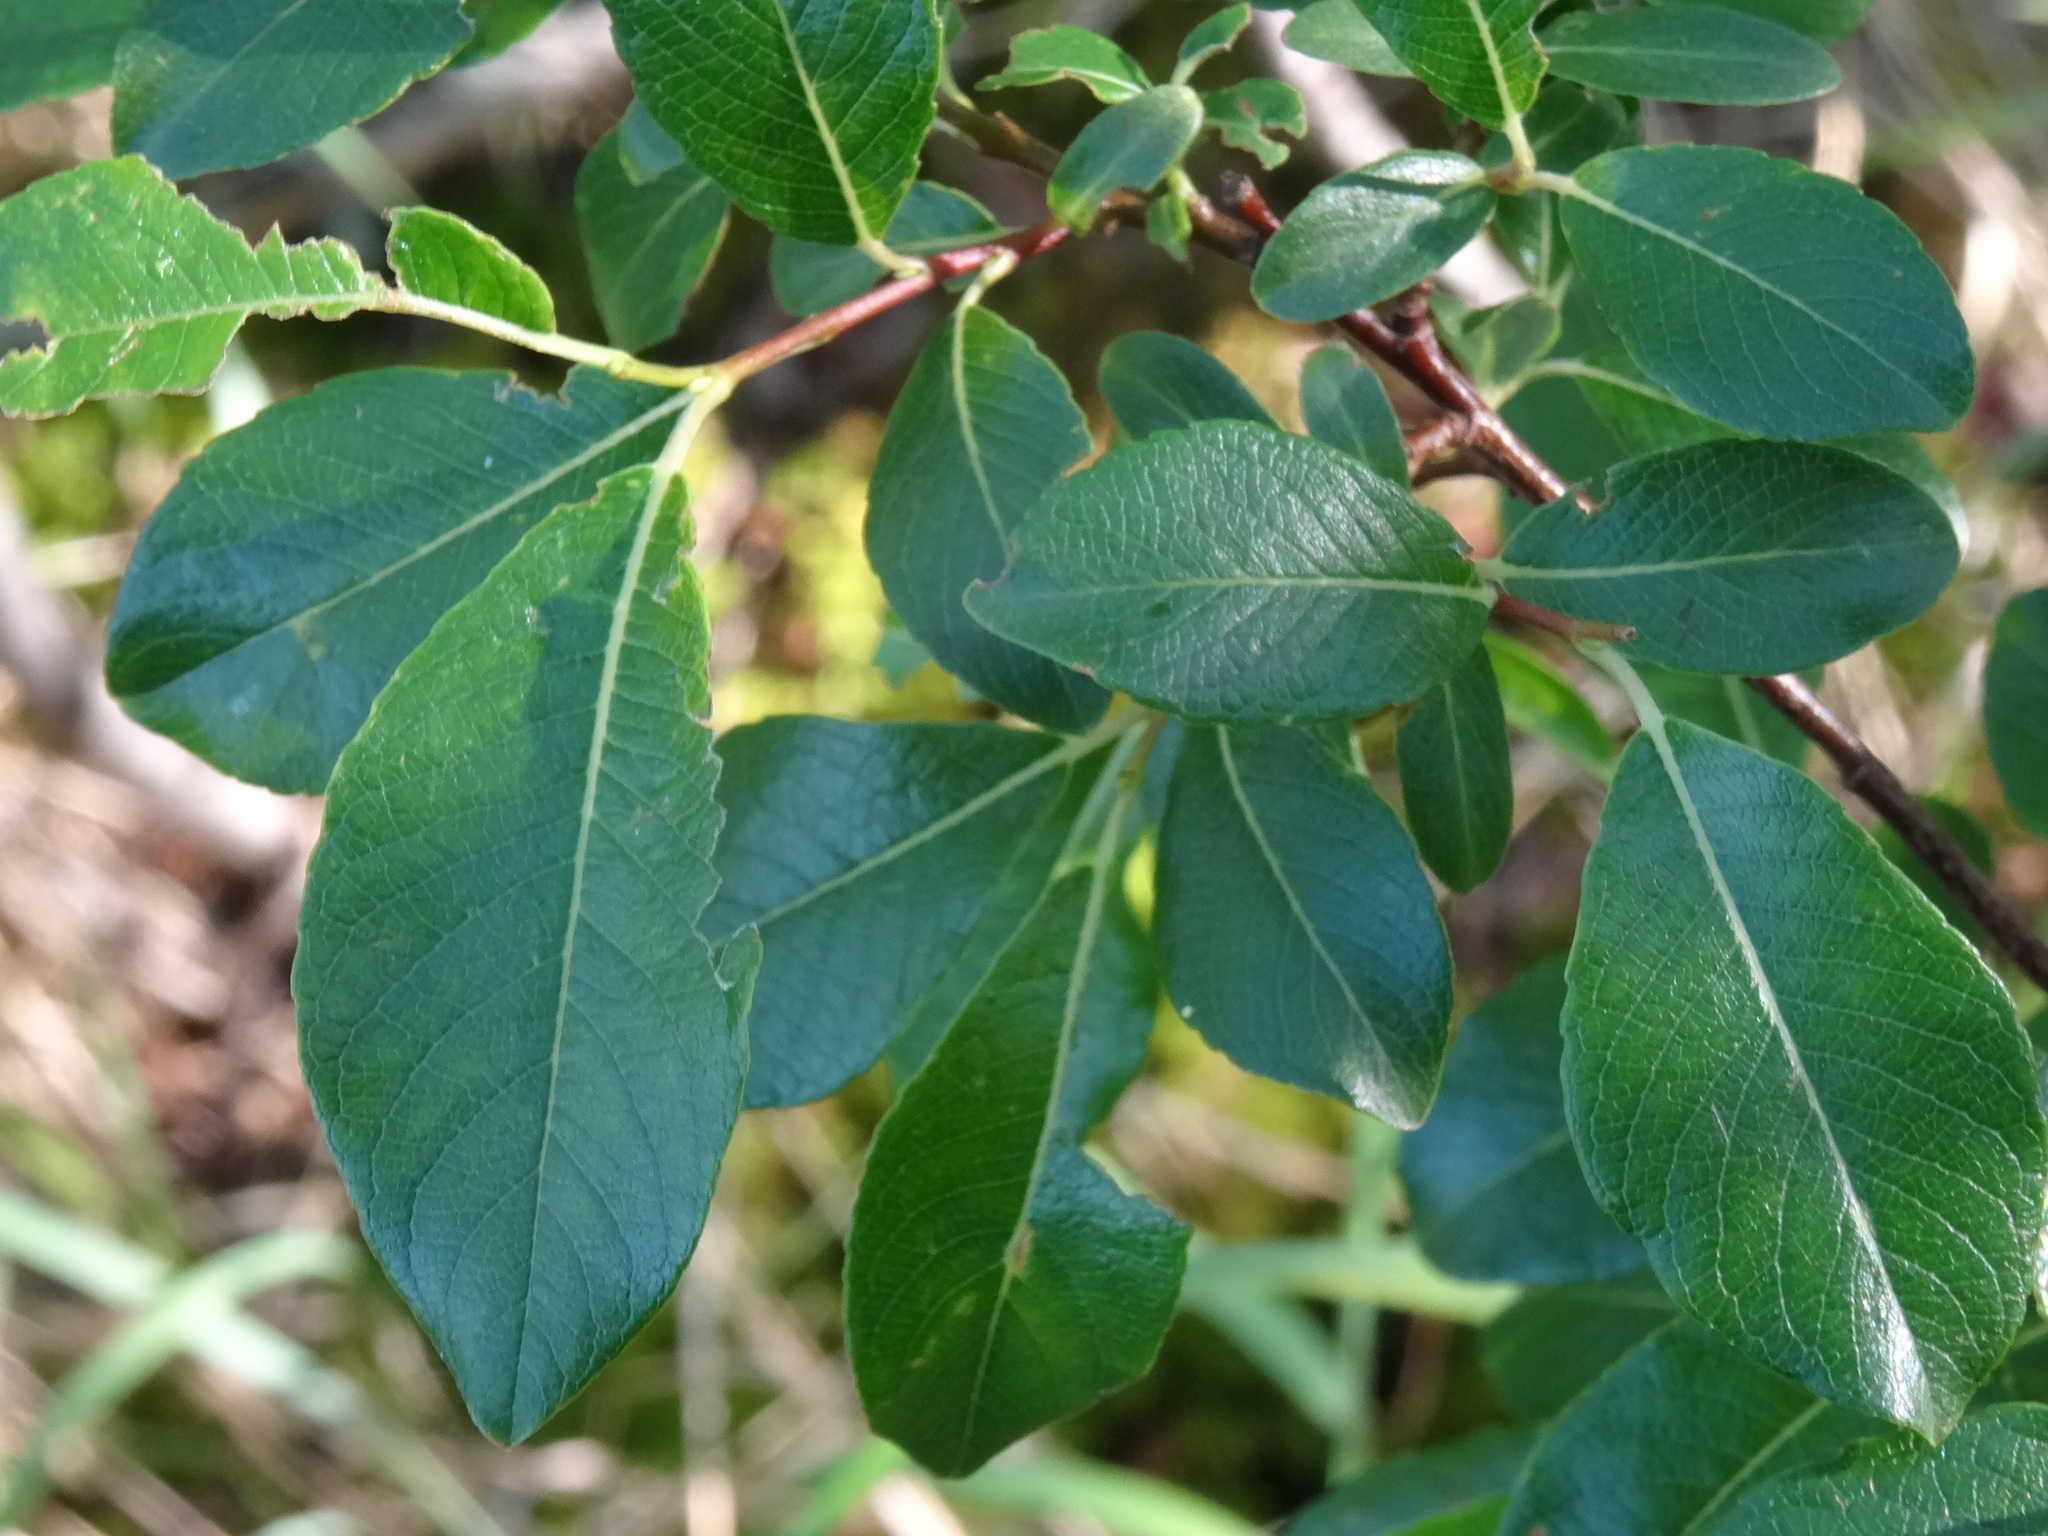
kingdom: Plantae
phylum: Tracheophyta
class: Magnoliopsida
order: Malpighiales
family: Salicaceae
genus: Salix
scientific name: Salix phylicifolia
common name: Tea-leaved willow
